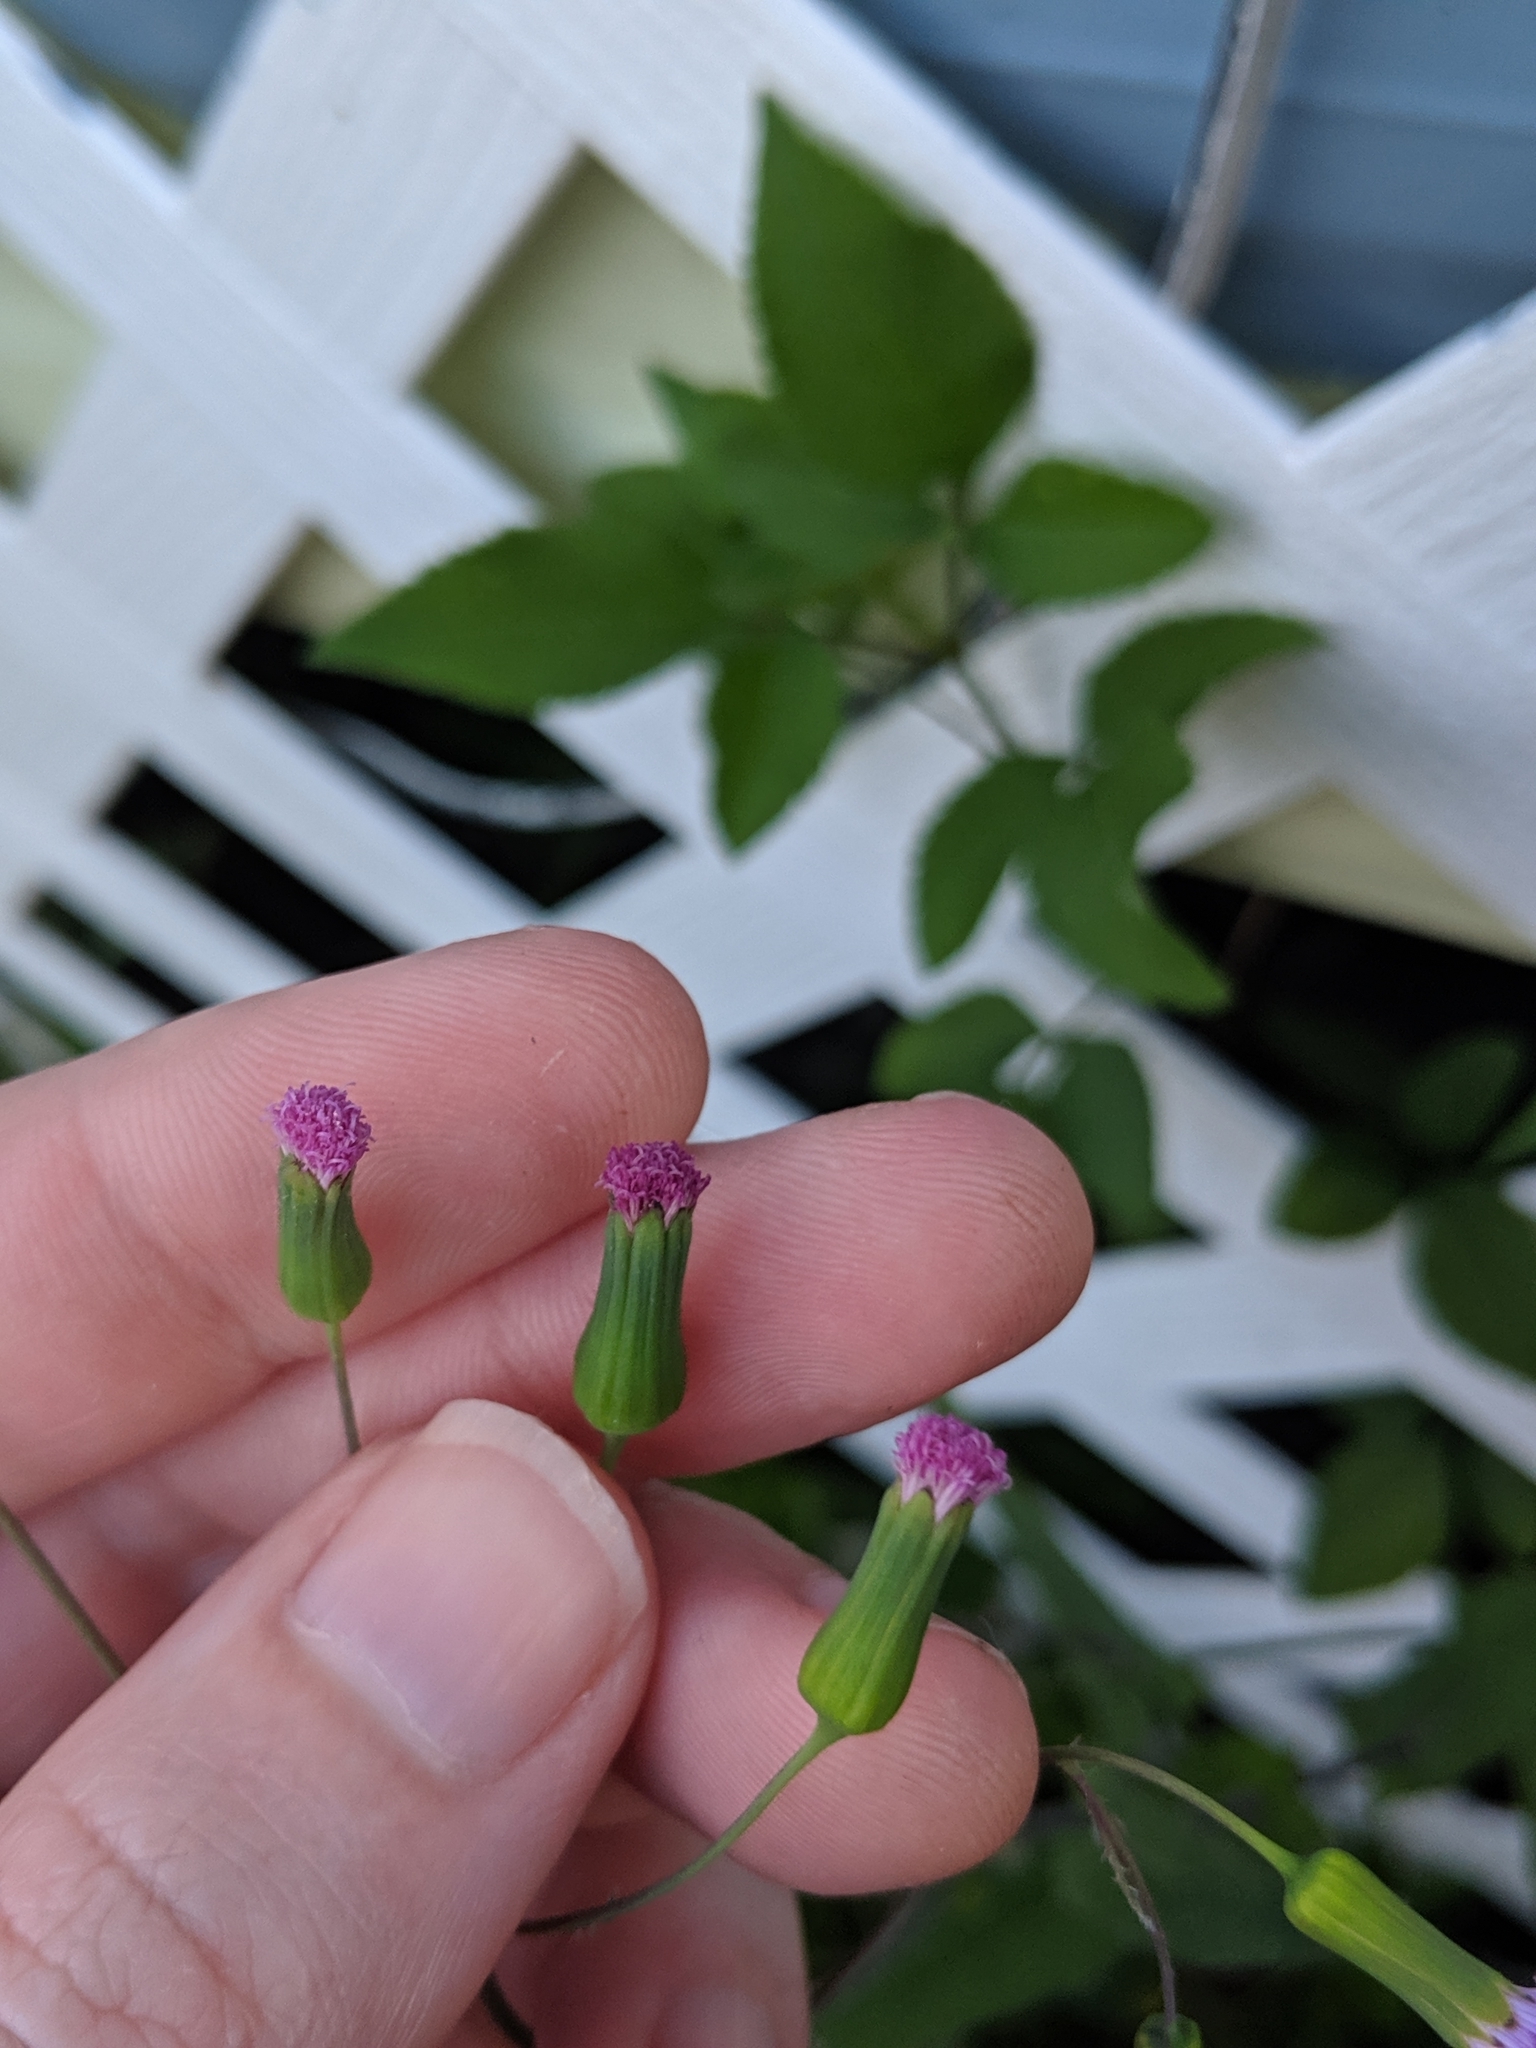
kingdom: Plantae
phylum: Tracheophyta
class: Magnoliopsida
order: Asterales
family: Asteraceae
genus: Emilia
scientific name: Emilia sonchifolia
